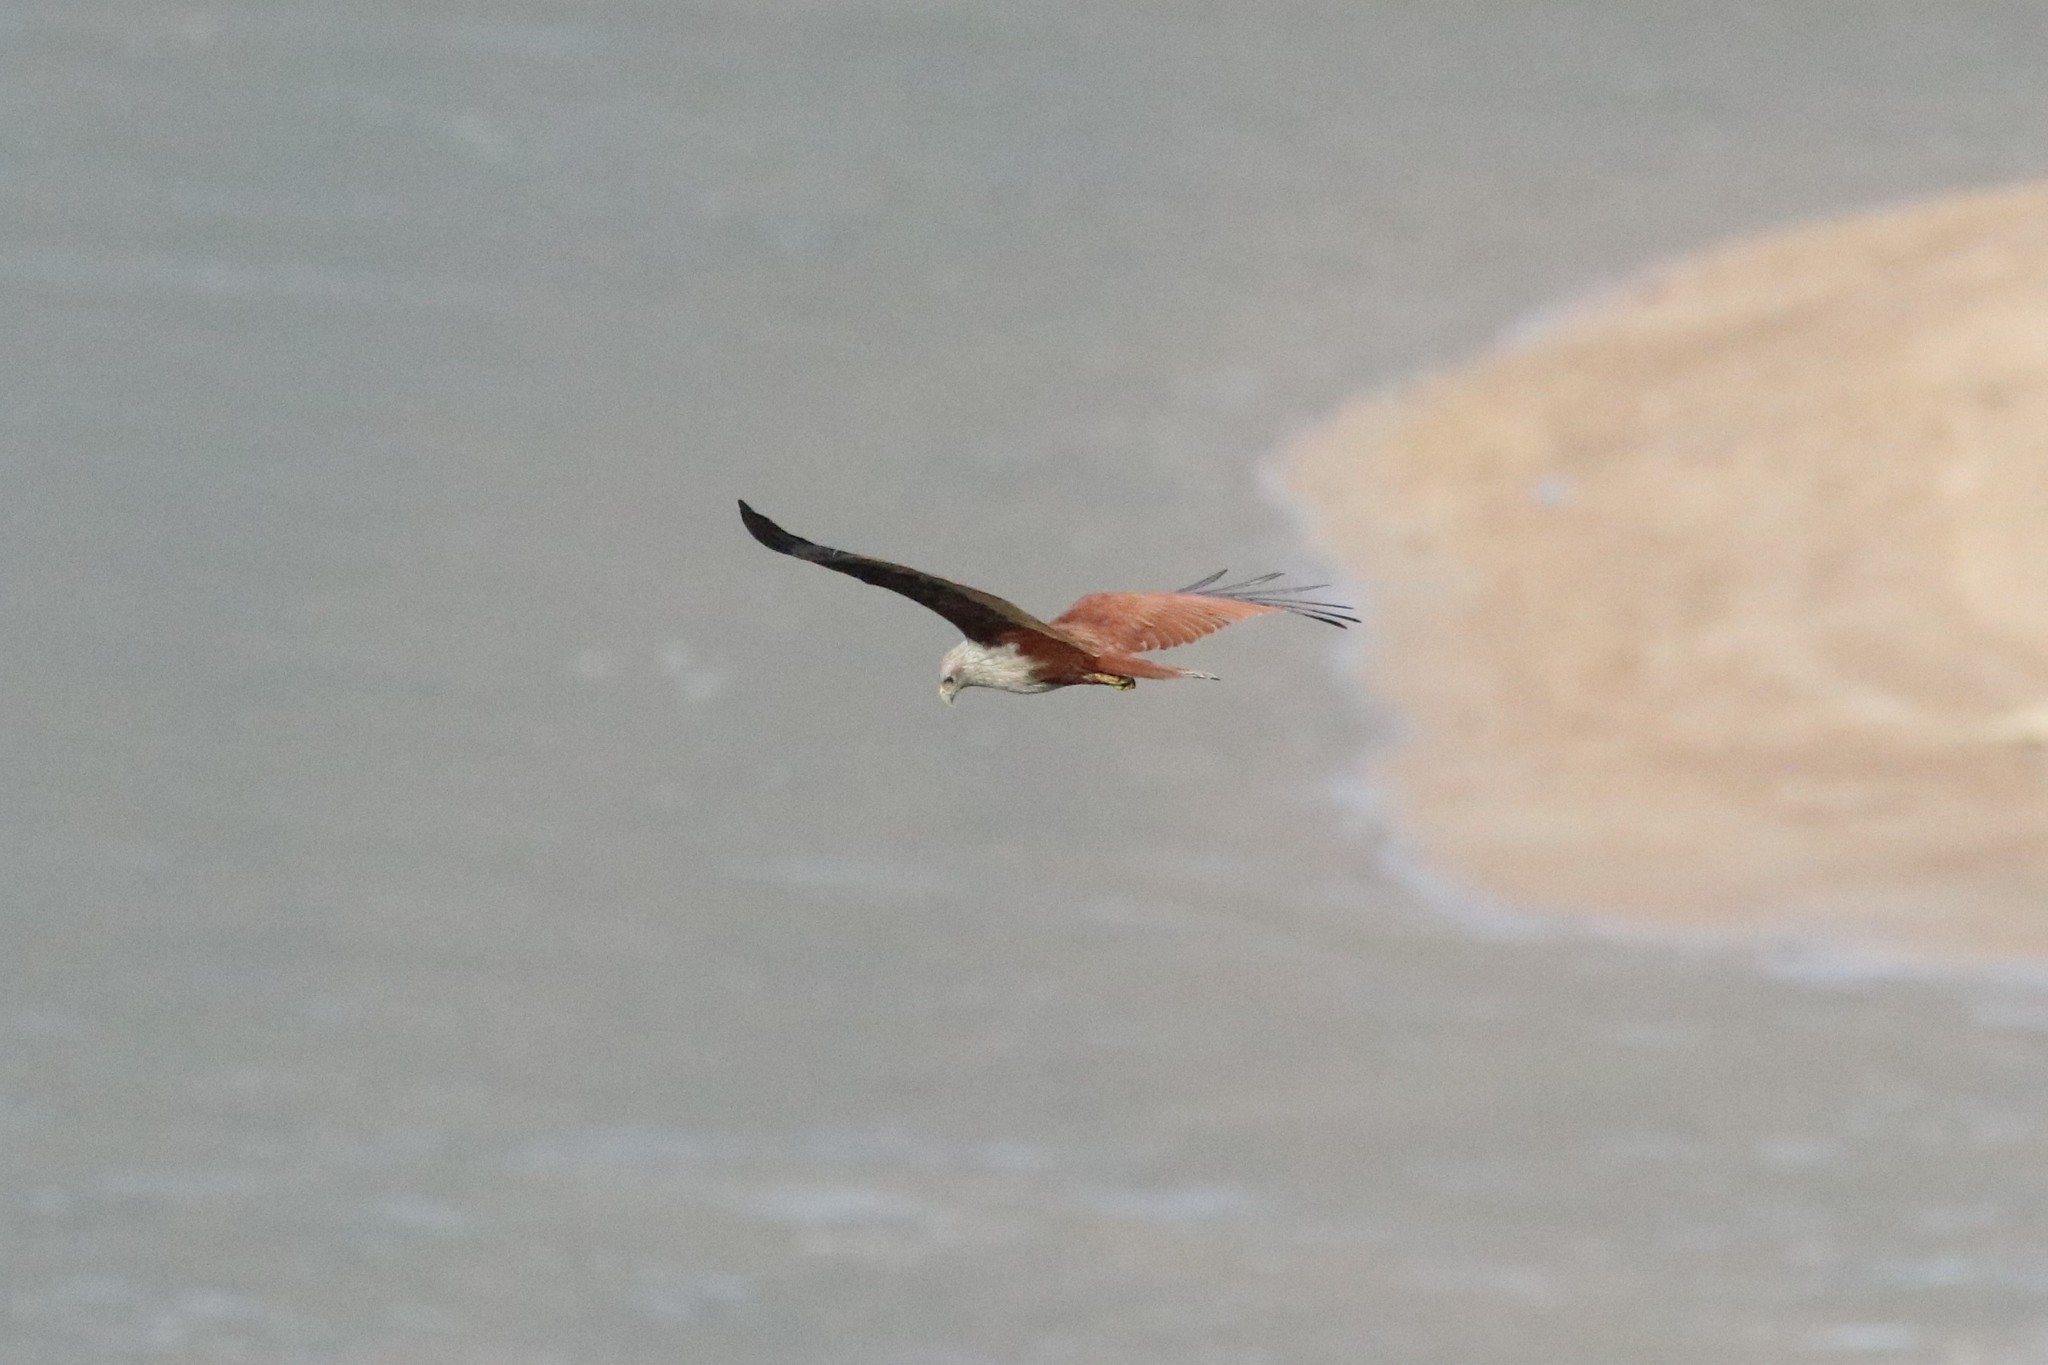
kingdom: Animalia
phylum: Chordata
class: Aves
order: Accipitriformes
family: Accipitridae
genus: Haliastur
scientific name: Haliastur indus
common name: Brahminy kite
